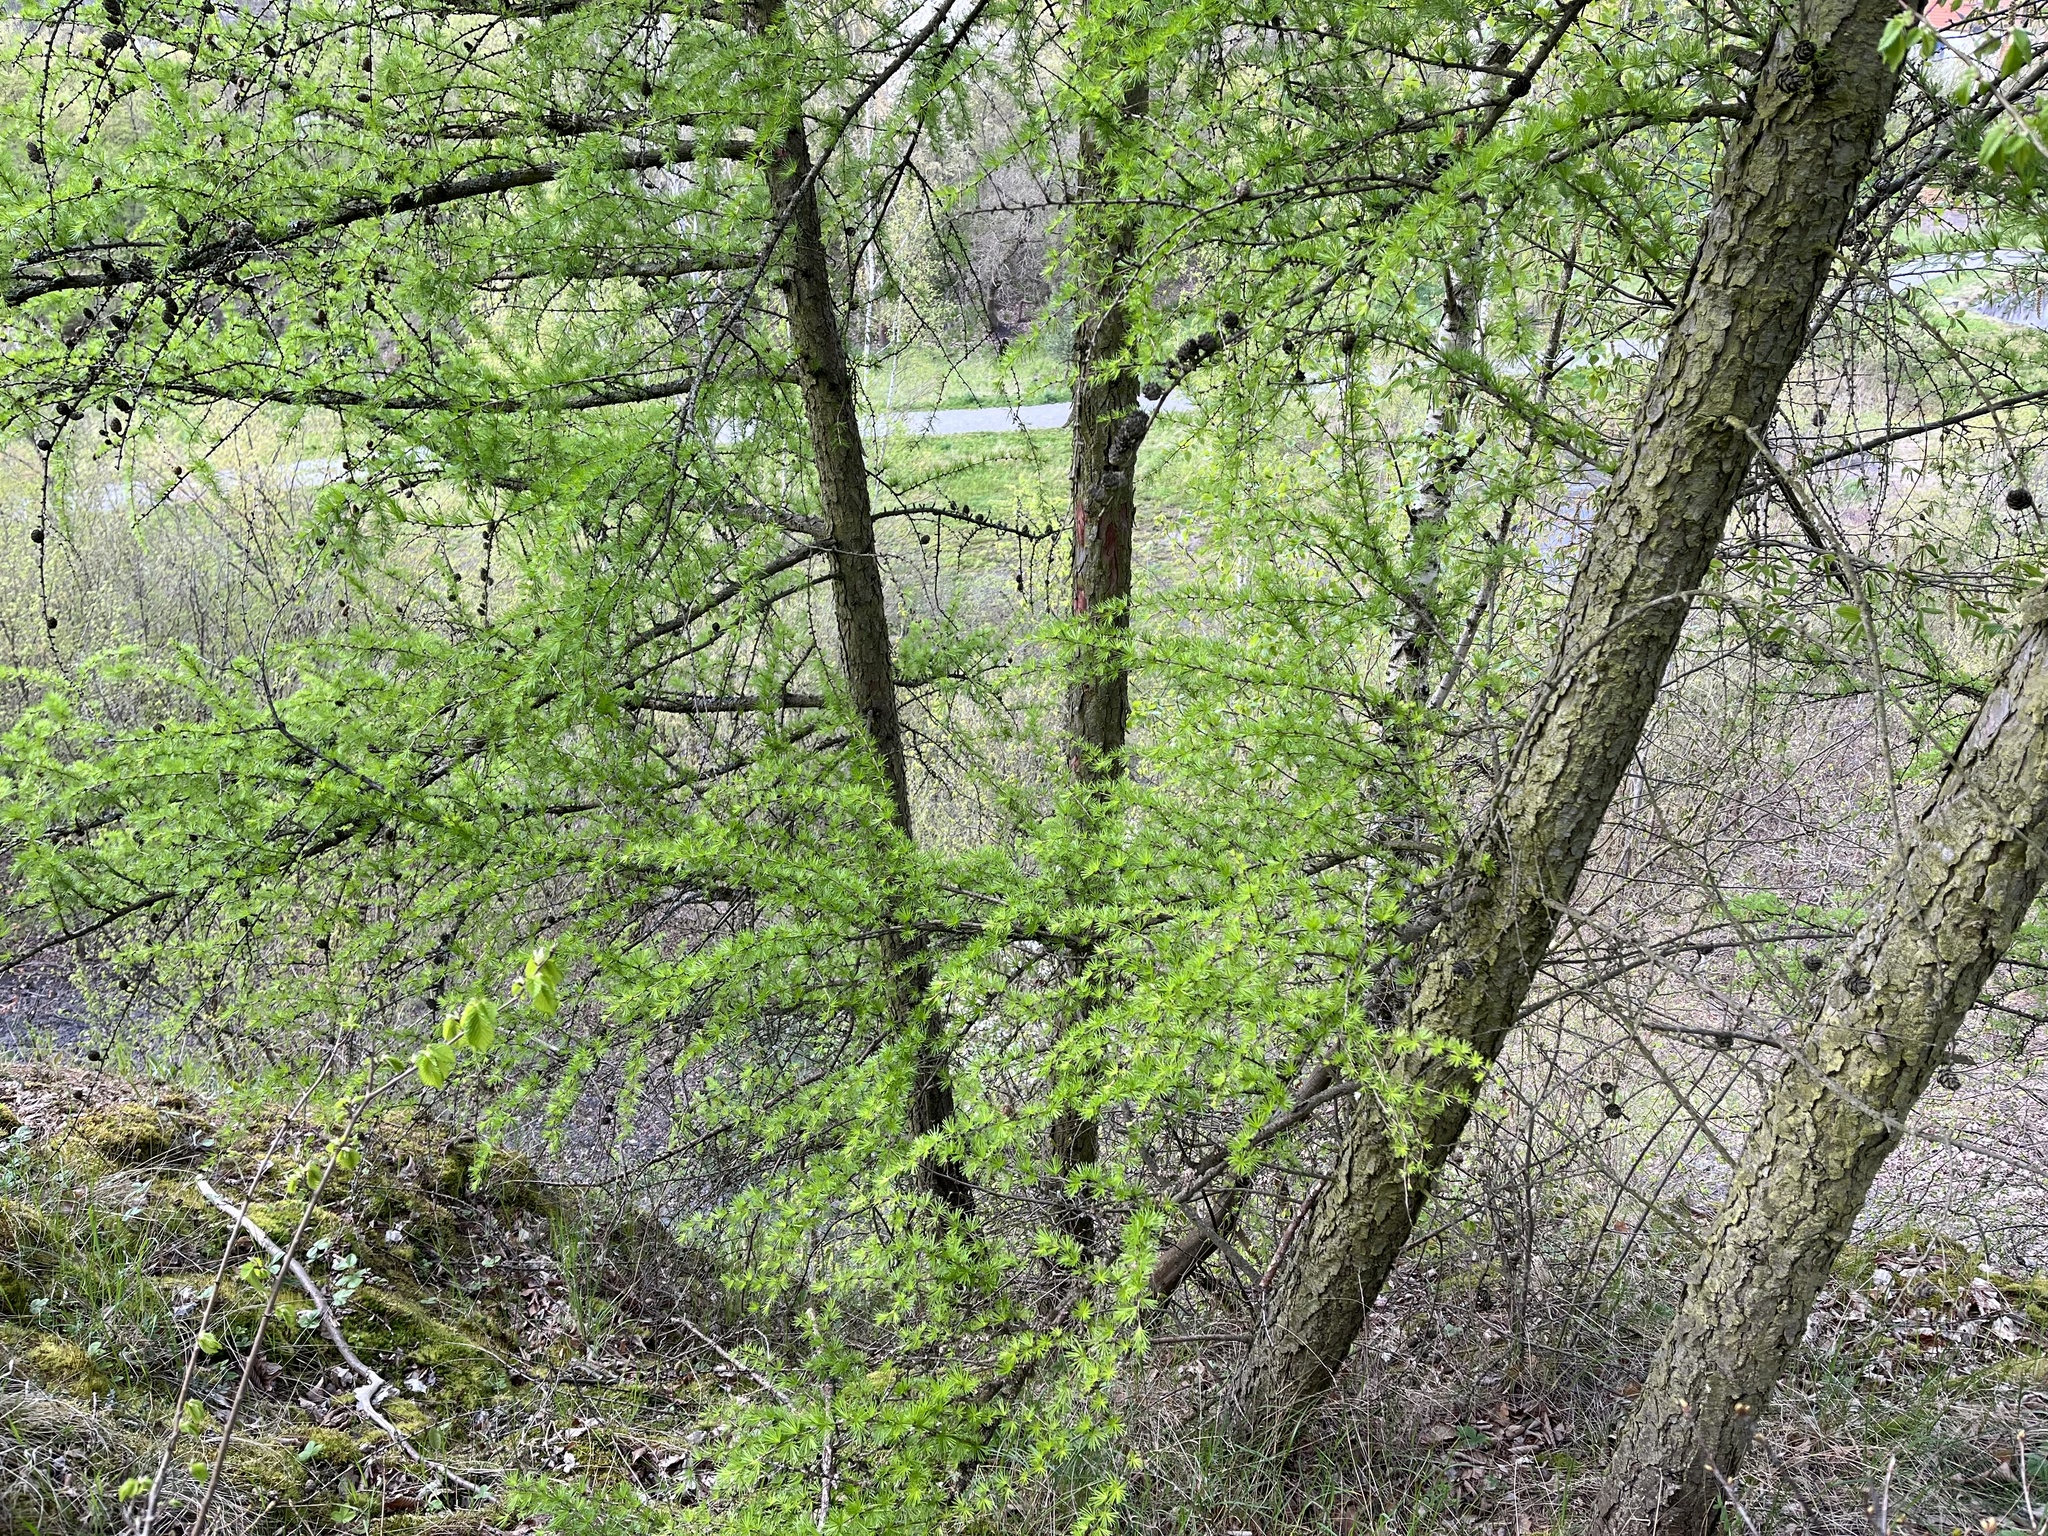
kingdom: Plantae
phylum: Tracheophyta
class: Pinopsida
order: Pinales
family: Pinaceae
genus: Larix
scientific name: Larix decidua
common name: European larch
